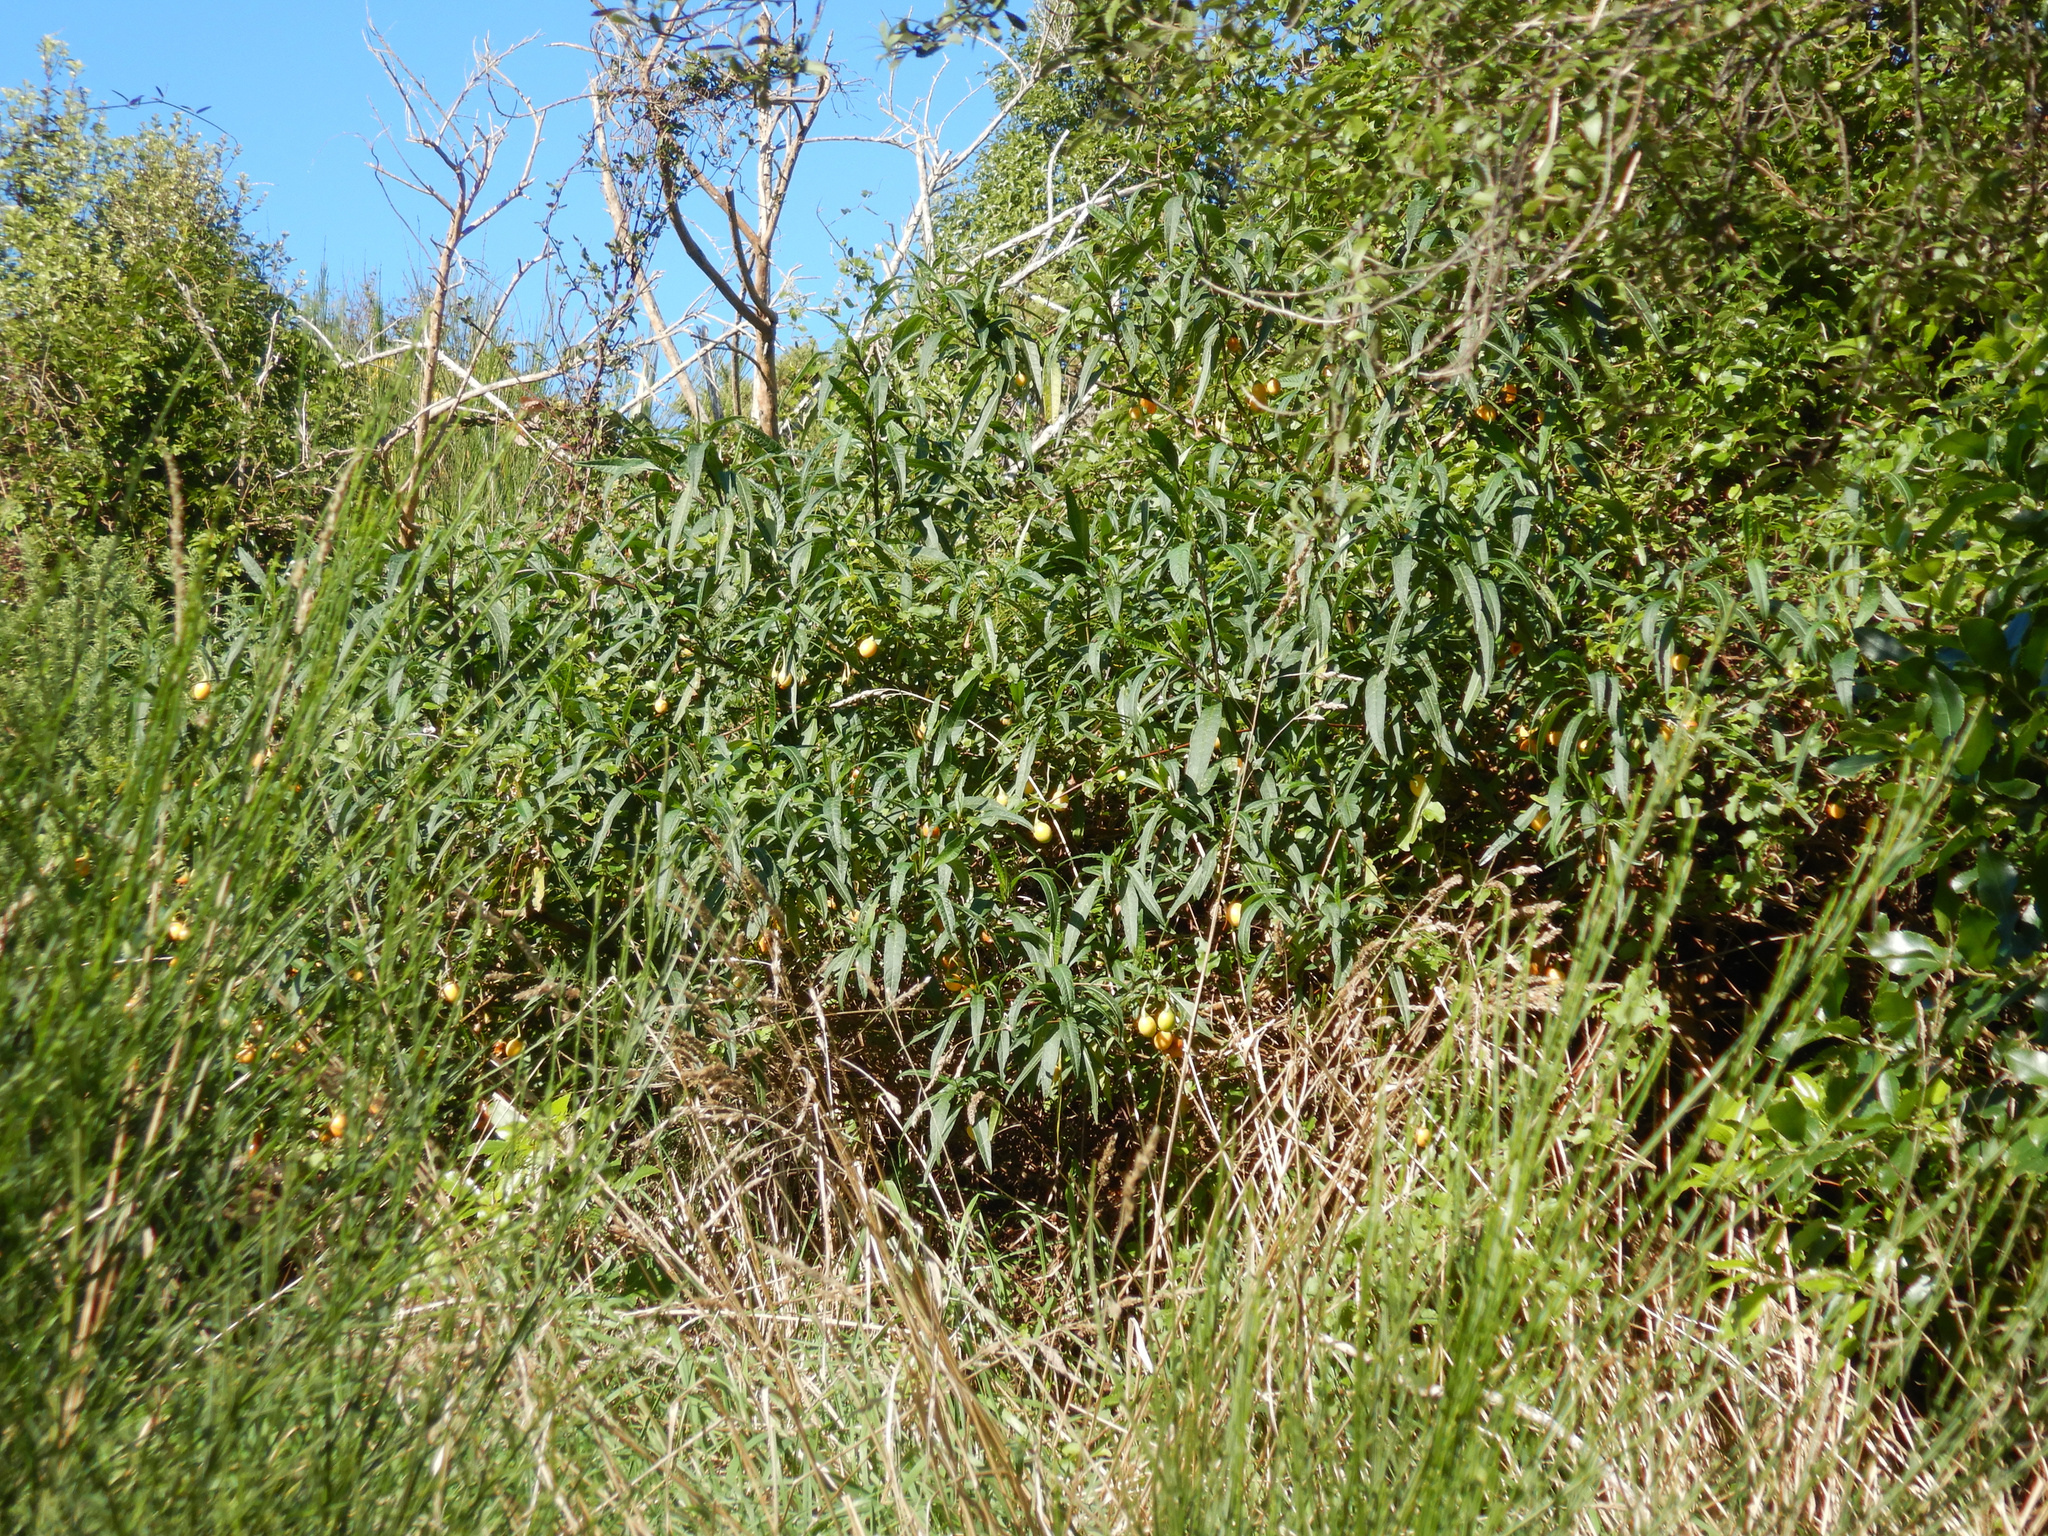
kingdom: Plantae
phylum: Tracheophyta
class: Magnoliopsida
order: Solanales
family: Solanaceae
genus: Solanum
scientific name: Solanum laciniatum
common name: Kangaroo-apple
